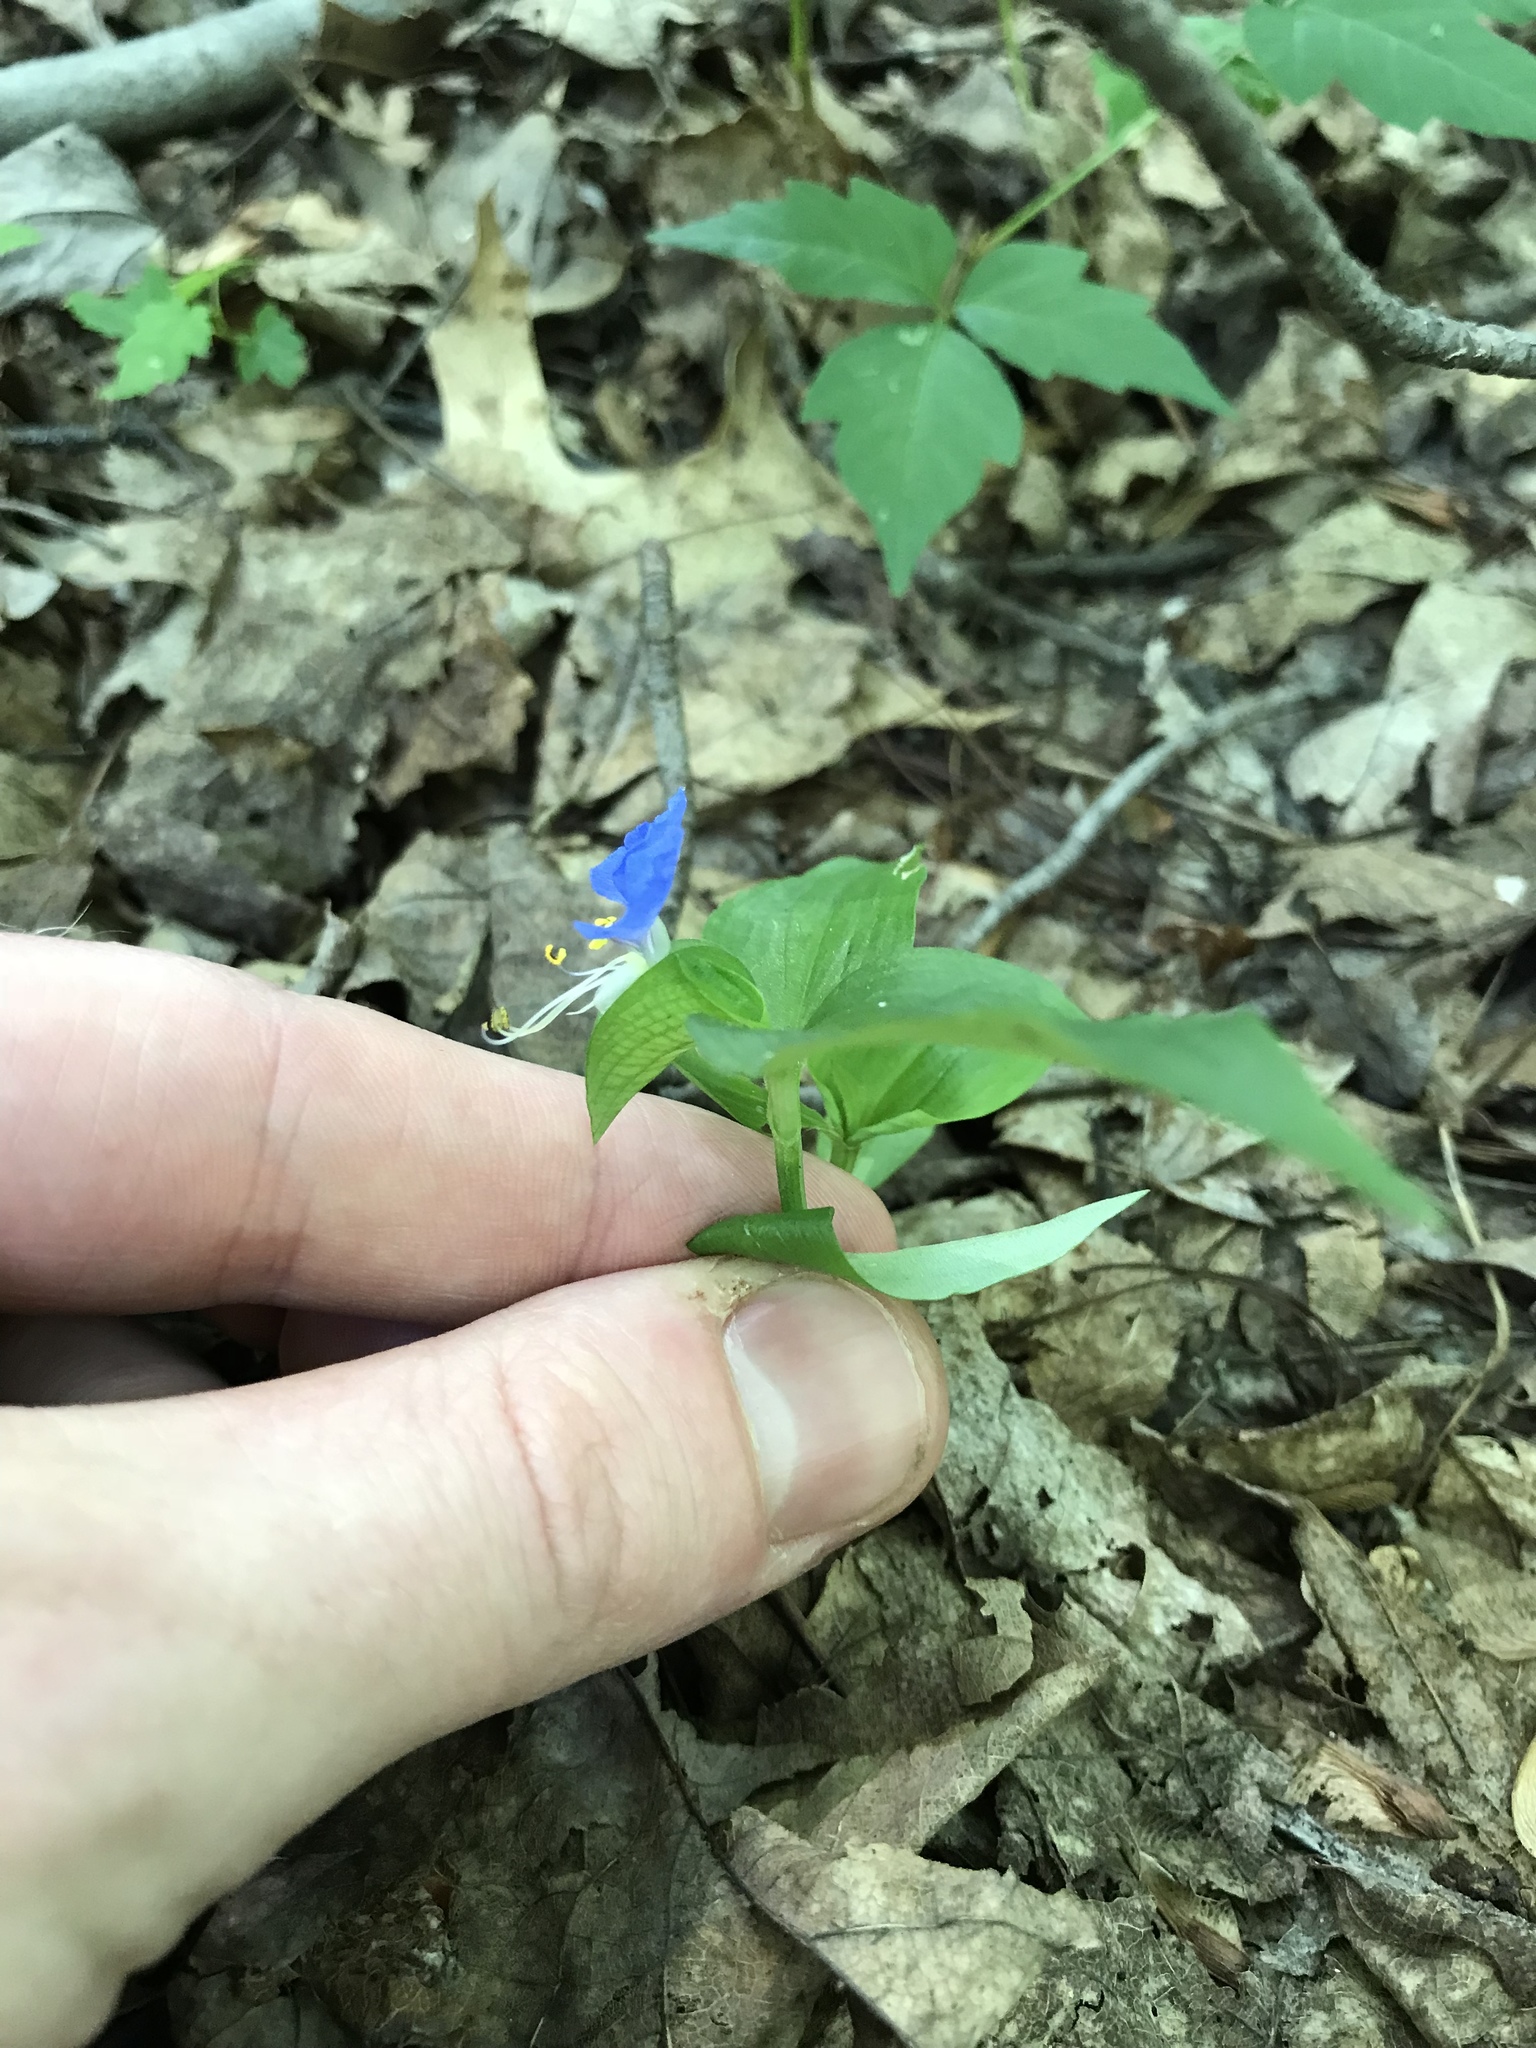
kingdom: Plantae
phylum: Tracheophyta
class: Liliopsida
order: Commelinales
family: Commelinaceae
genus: Commelina
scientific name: Commelina communis
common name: Asiatic dayflower
